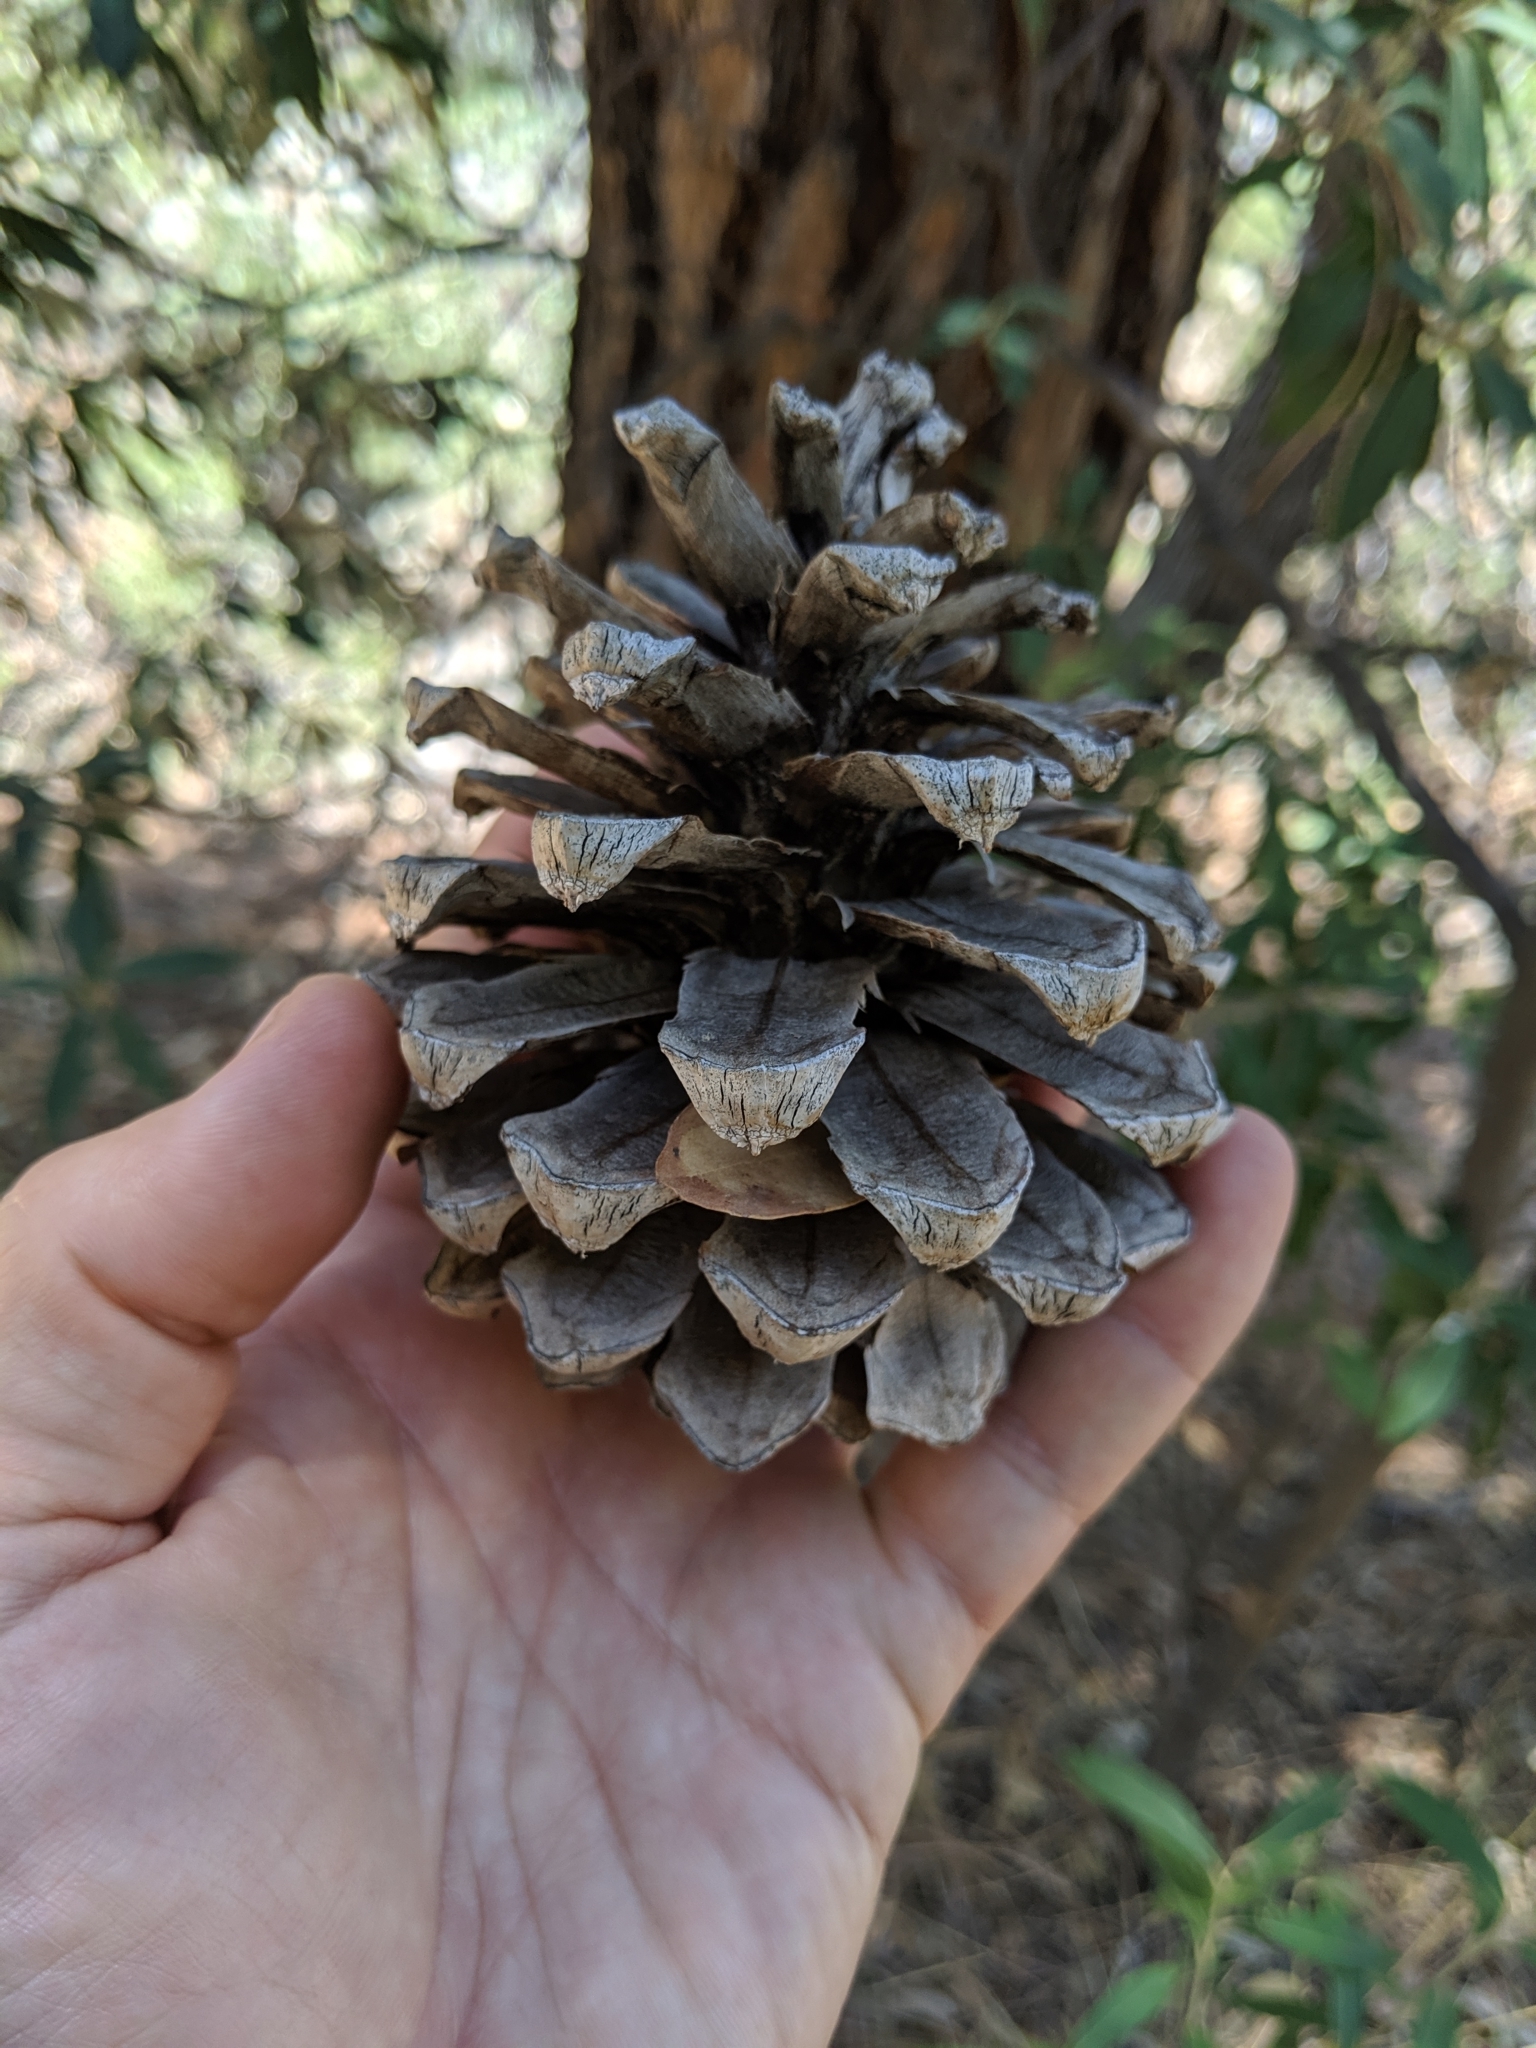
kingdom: Plantae
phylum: Tracheophyta
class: Pinopsida
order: Pinales
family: Pinaceae
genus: Pinus
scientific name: Pinus engelmannii
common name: Apache pine
